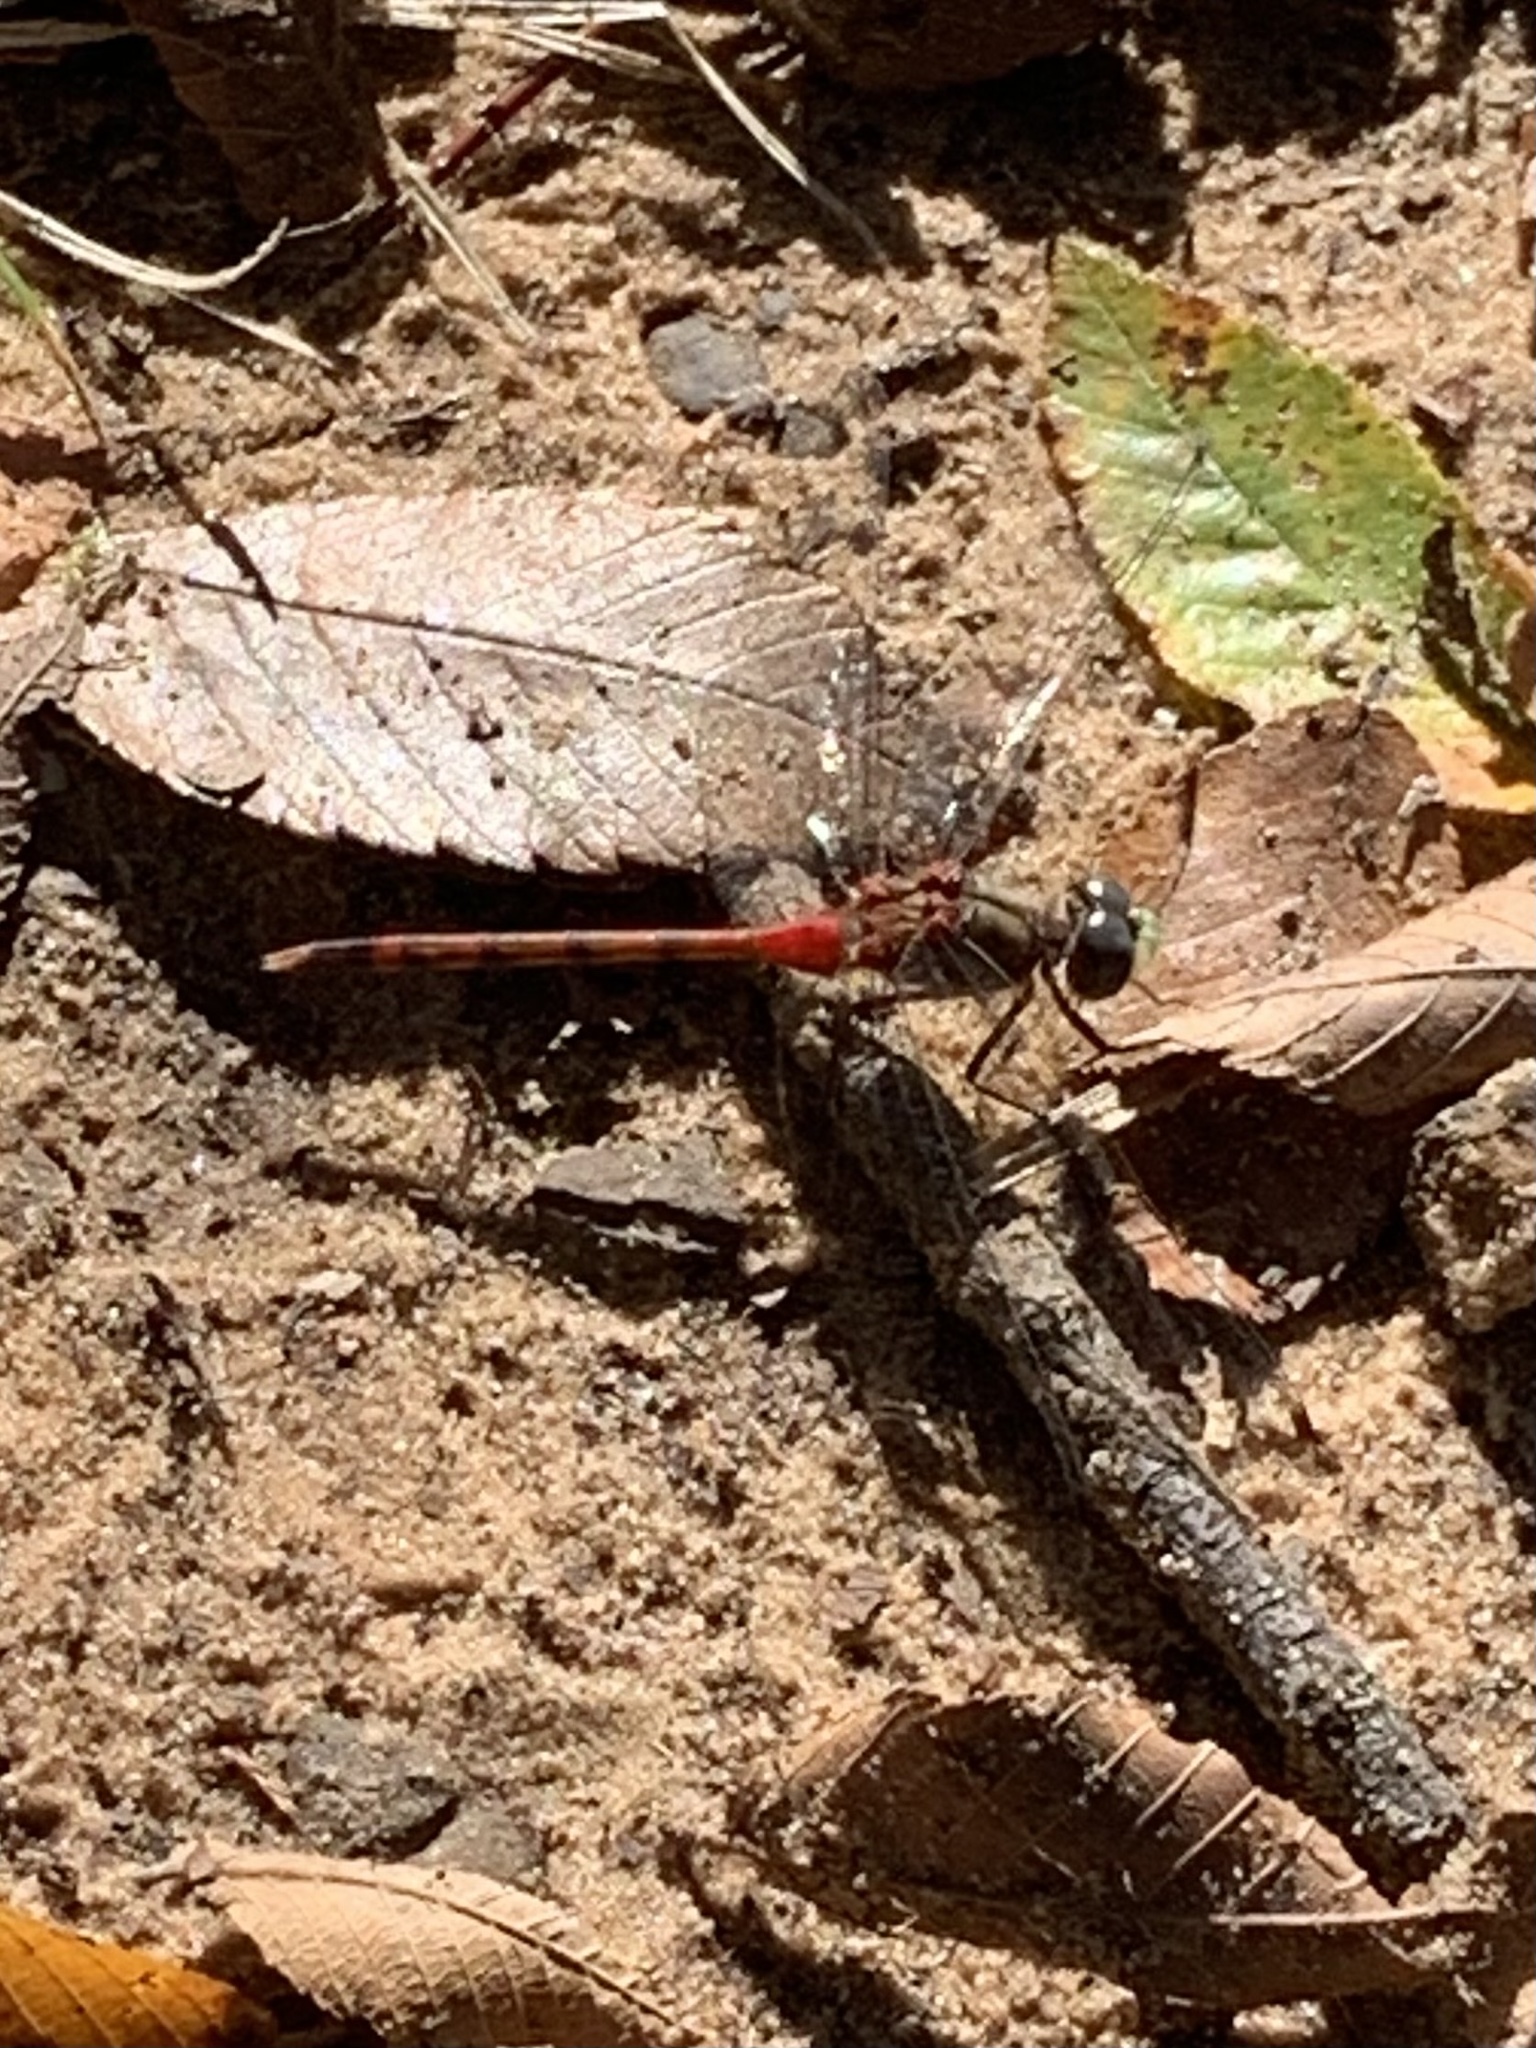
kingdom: Animalia
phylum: Arthropoda
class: Insecta
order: Odonata
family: Libellulidae
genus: Sympetrum
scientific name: Sympetrum ambiguum
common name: Blue-faced meadowhawk
